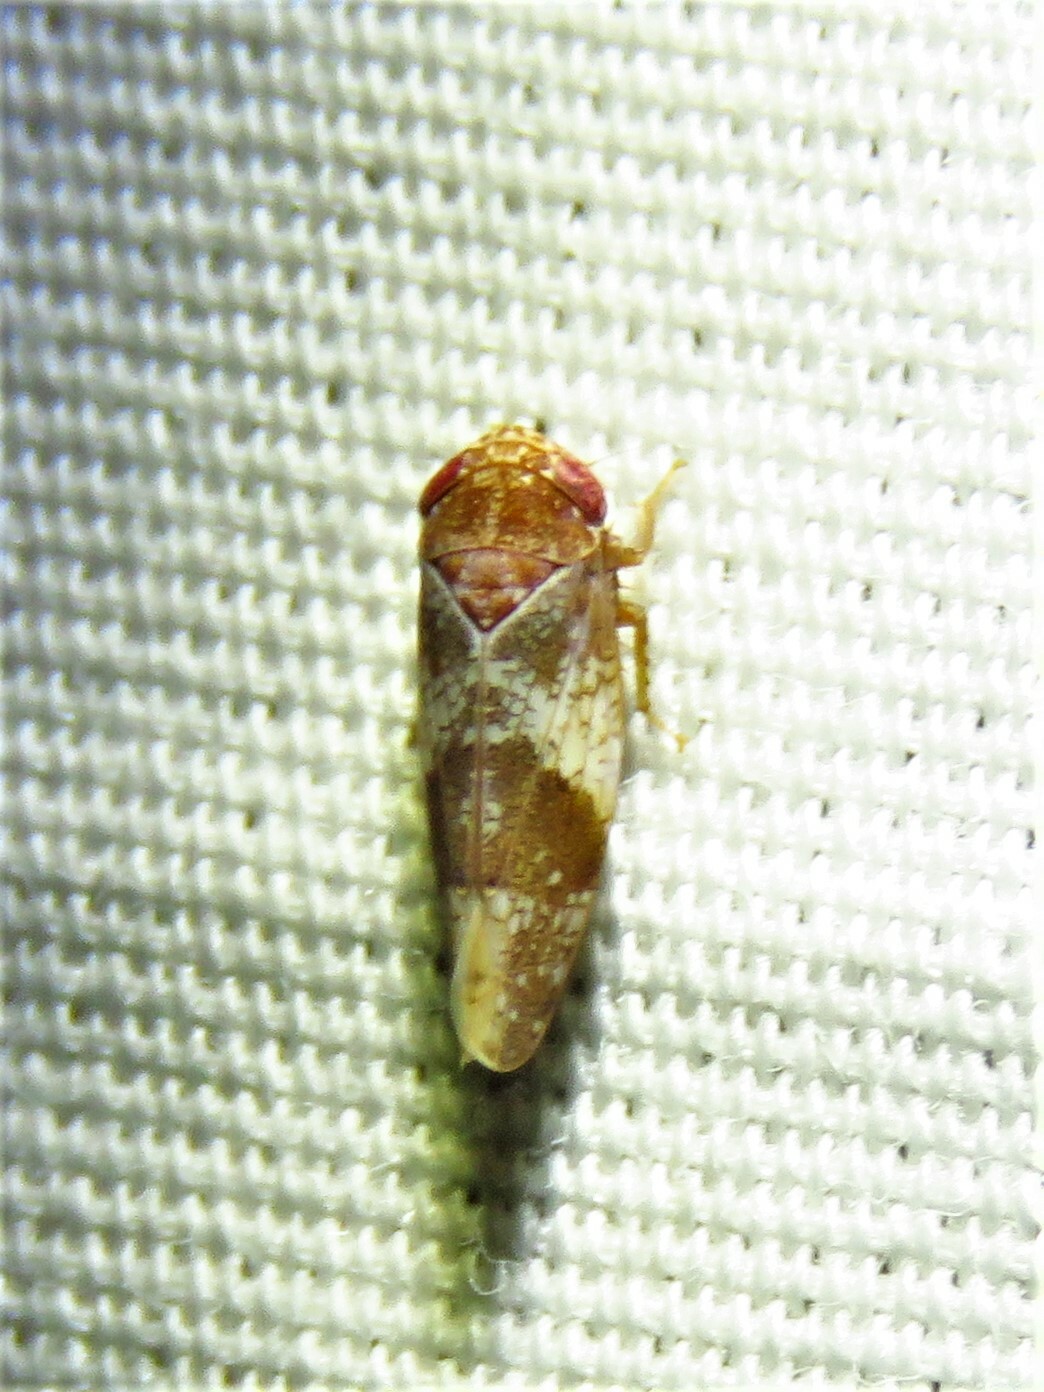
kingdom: Animalia
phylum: Arthropoda
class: Insecta
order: Hemiptera
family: Cicadellidae
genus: Norvellina
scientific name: Norvellina helenae
